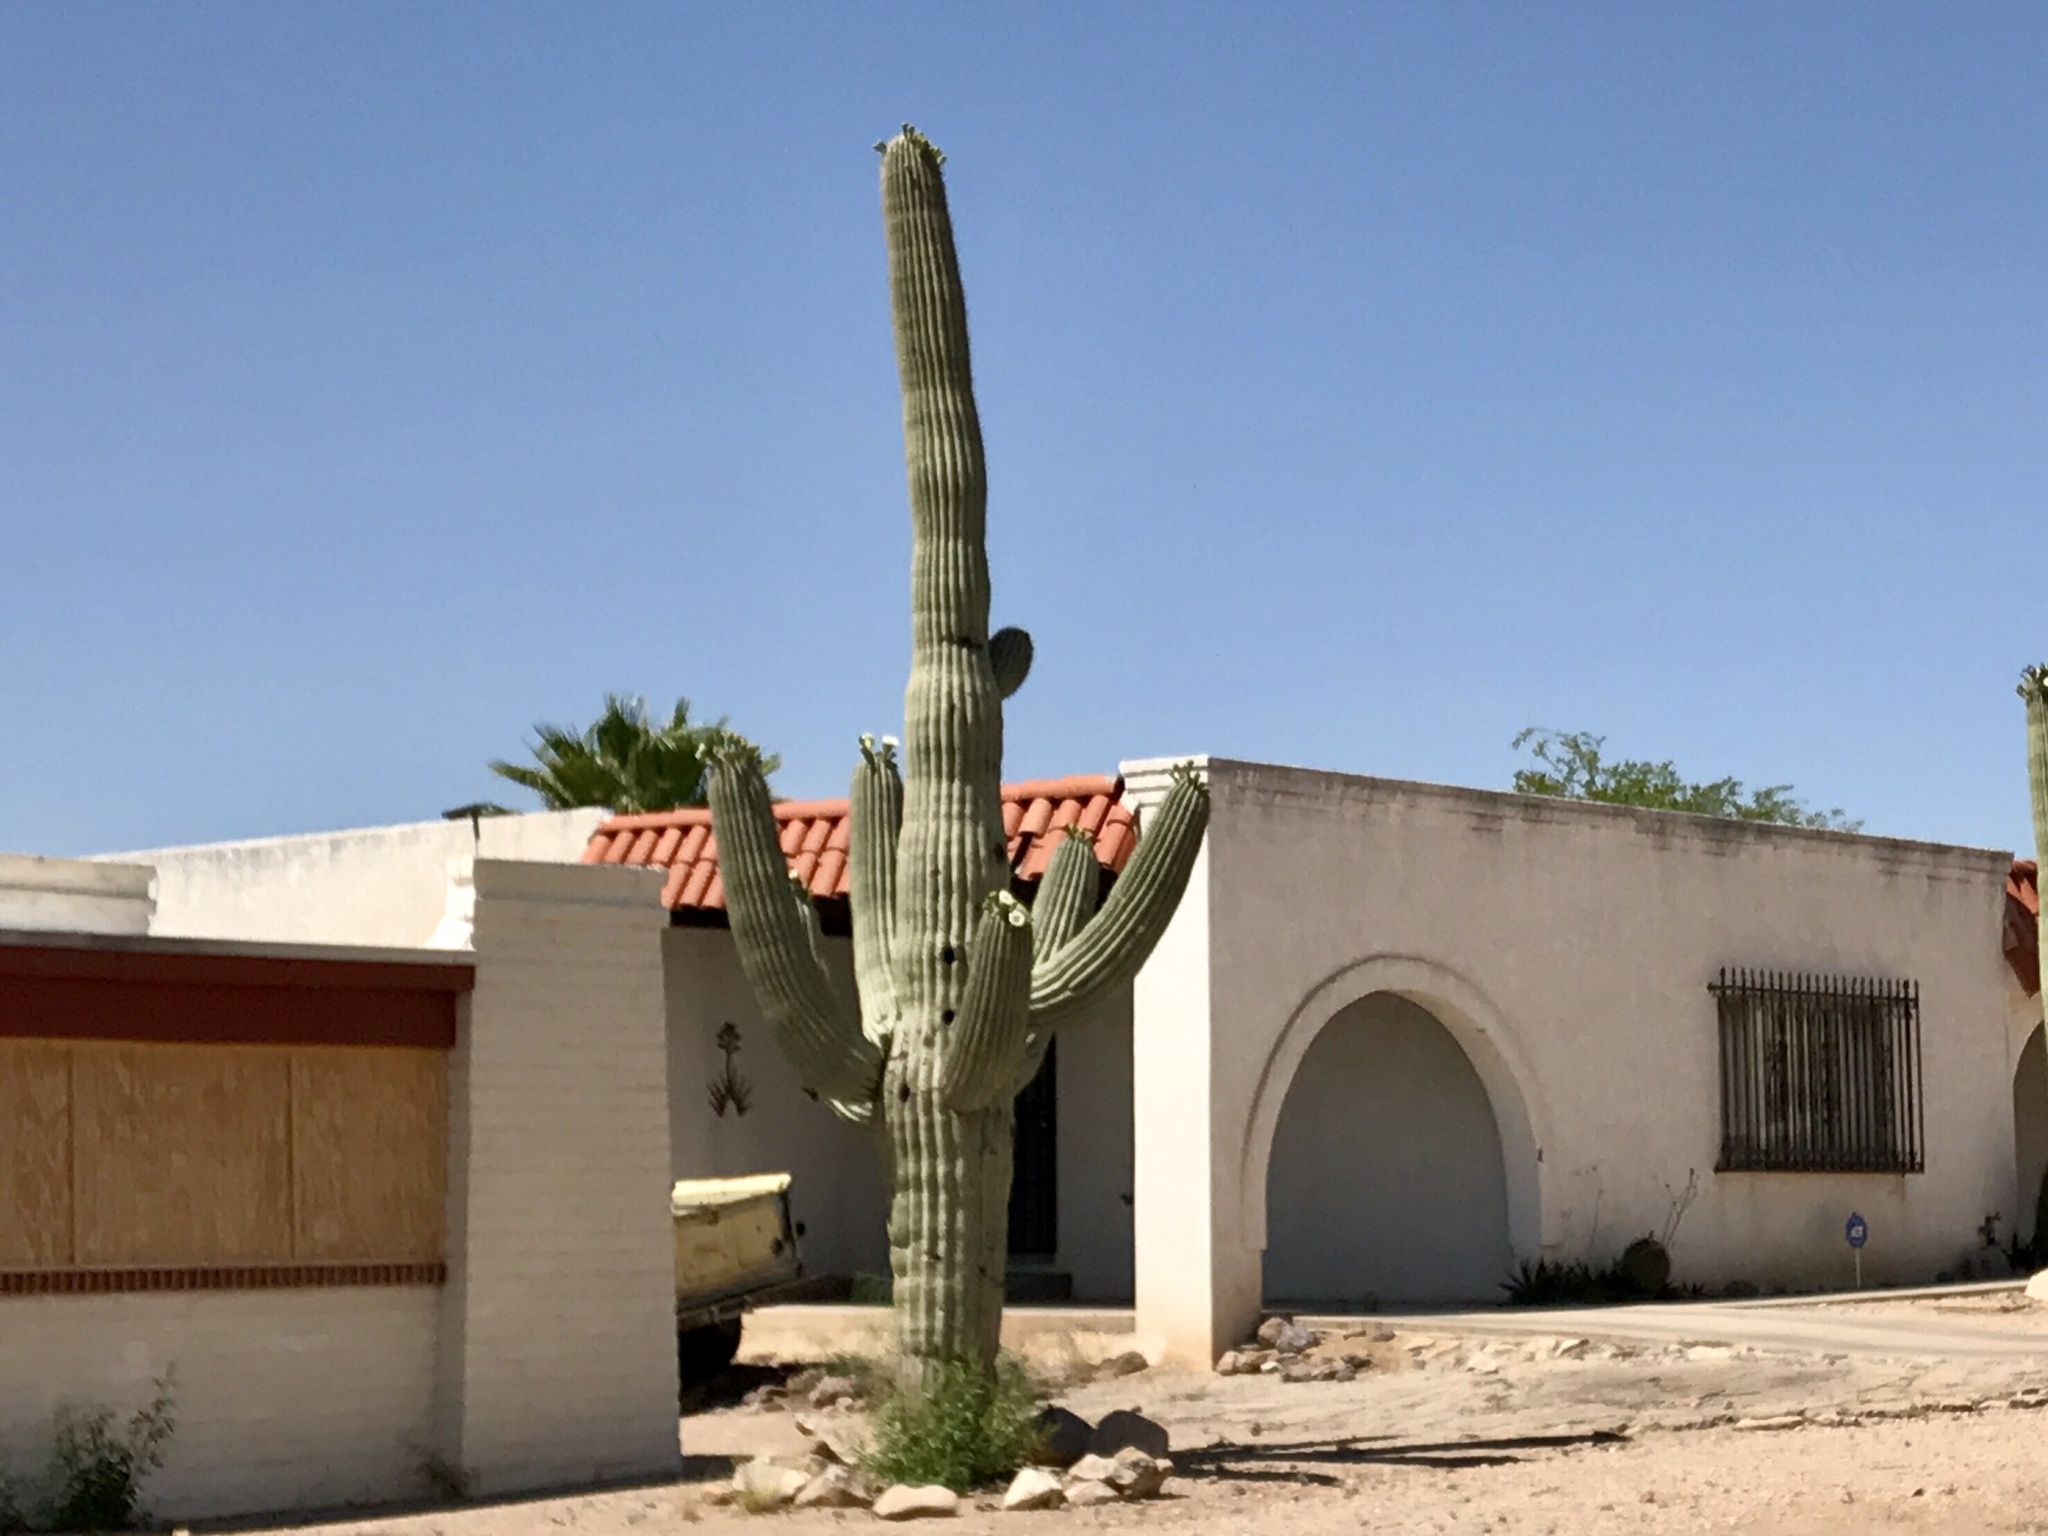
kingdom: Plantae
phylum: Tracheophyta
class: Magnoliopsida
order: Caryophyllales
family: Cactaceae
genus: Carnegiea
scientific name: Carnegiea gigantea
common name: Saguaro
